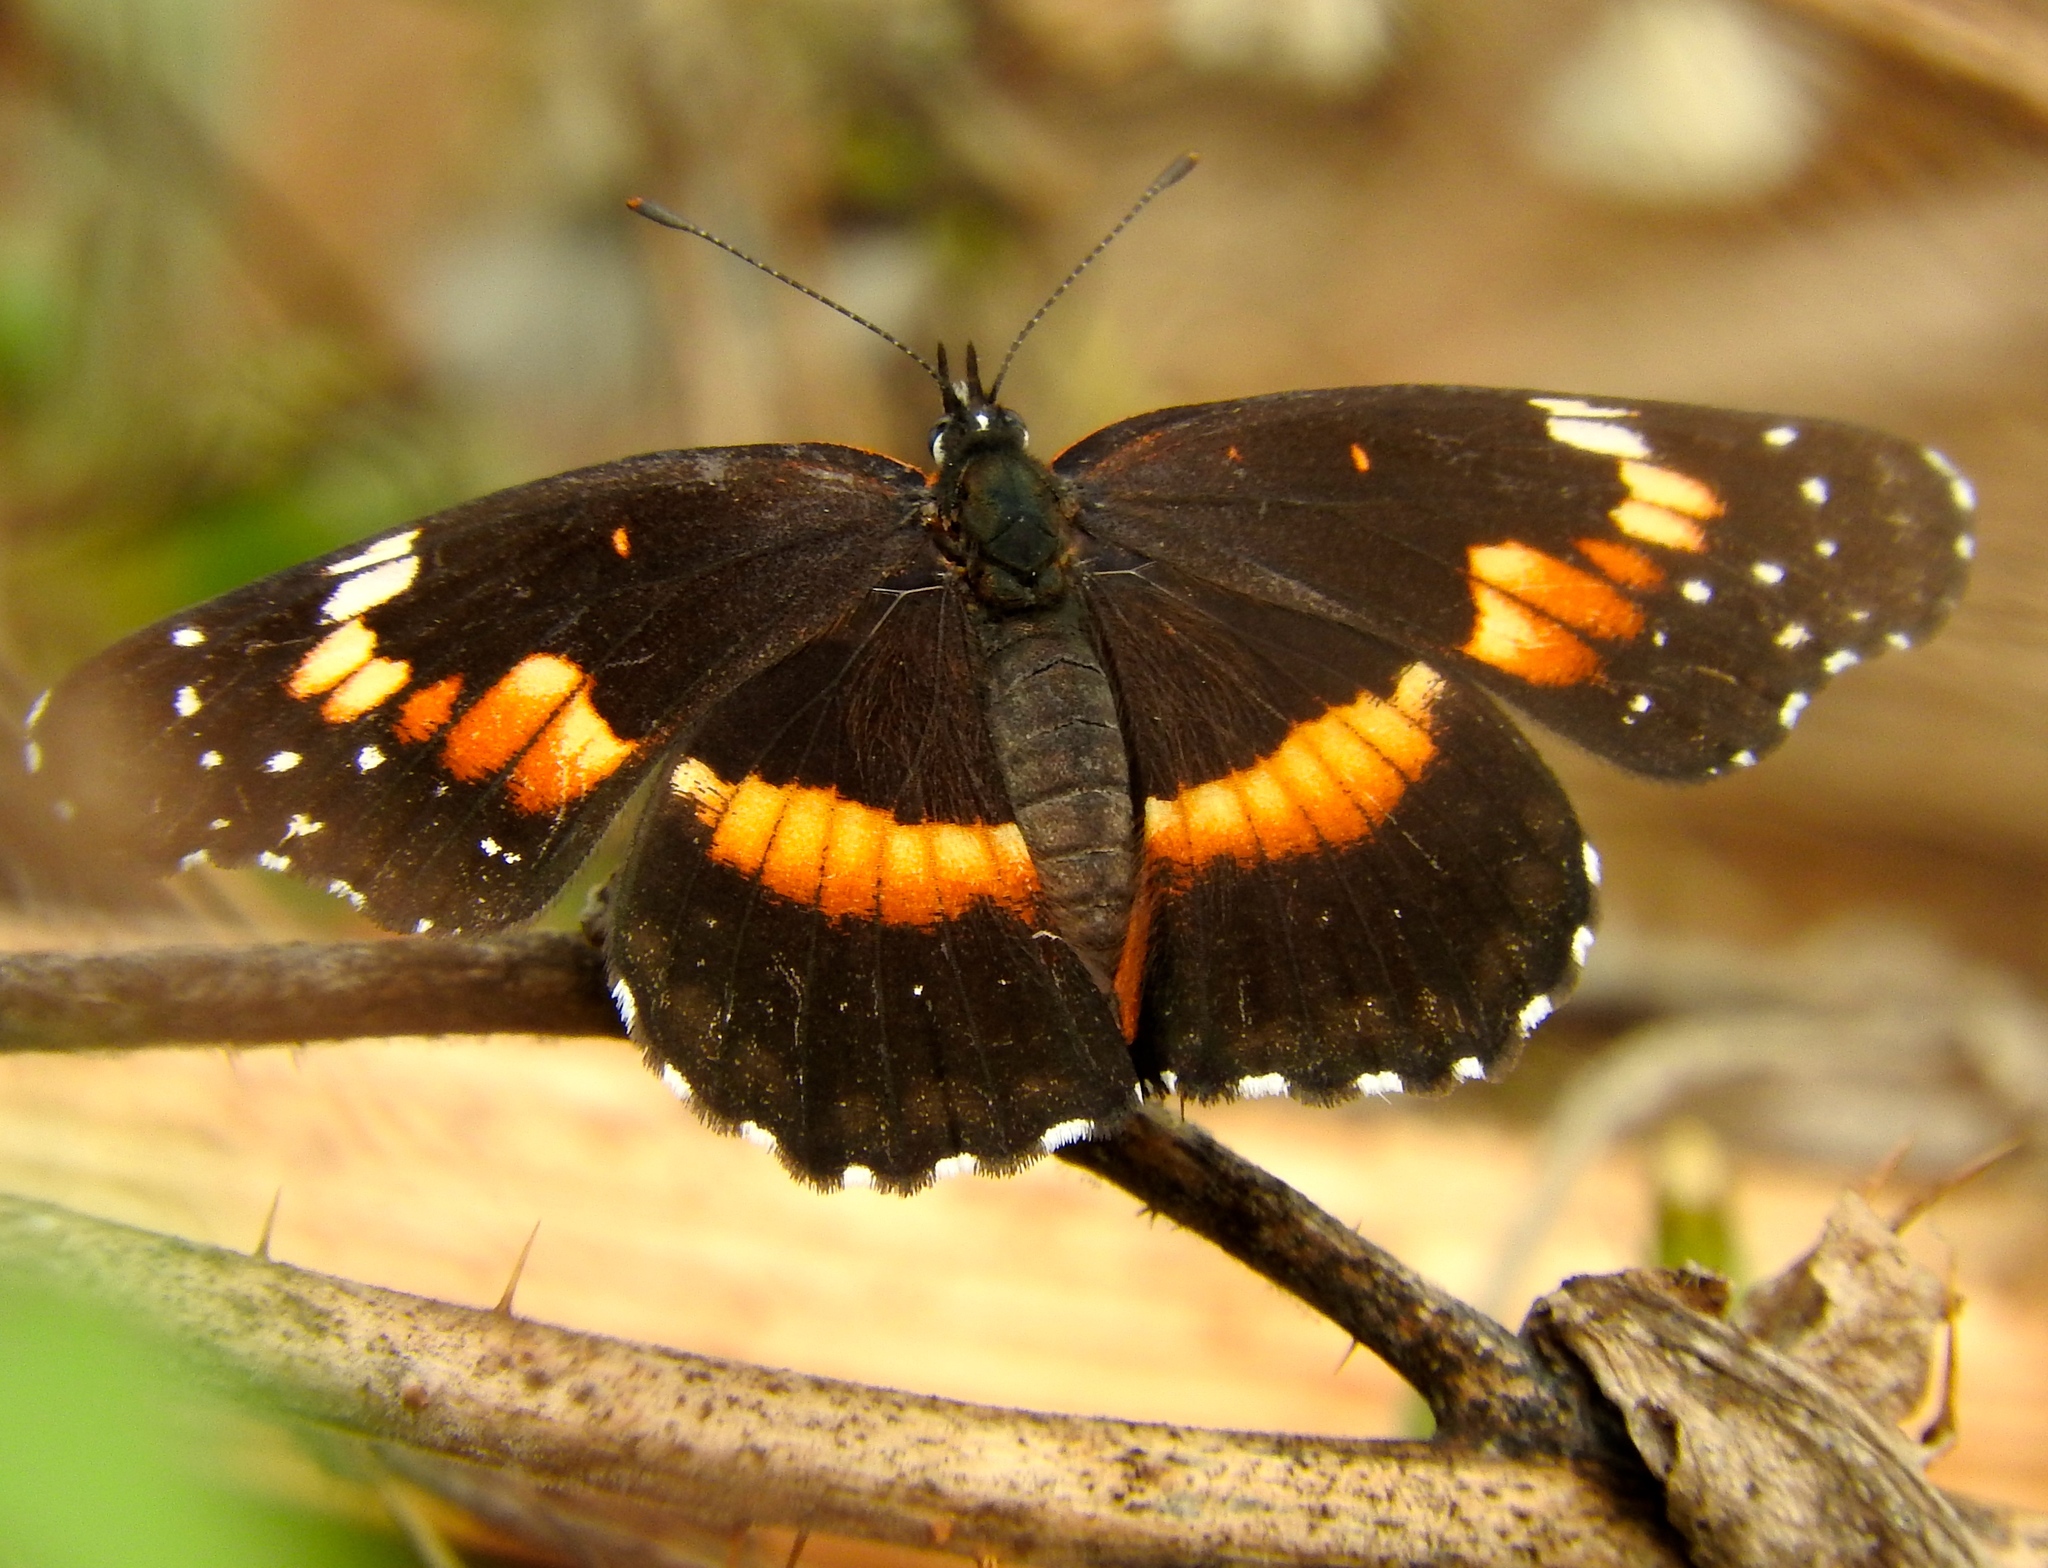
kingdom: Animalia
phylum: Arthropoda
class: Insecta
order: Lepidoptera
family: Nymphalidae
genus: Chlosyne
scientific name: Chlosyne lacinia
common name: Bordered patch
